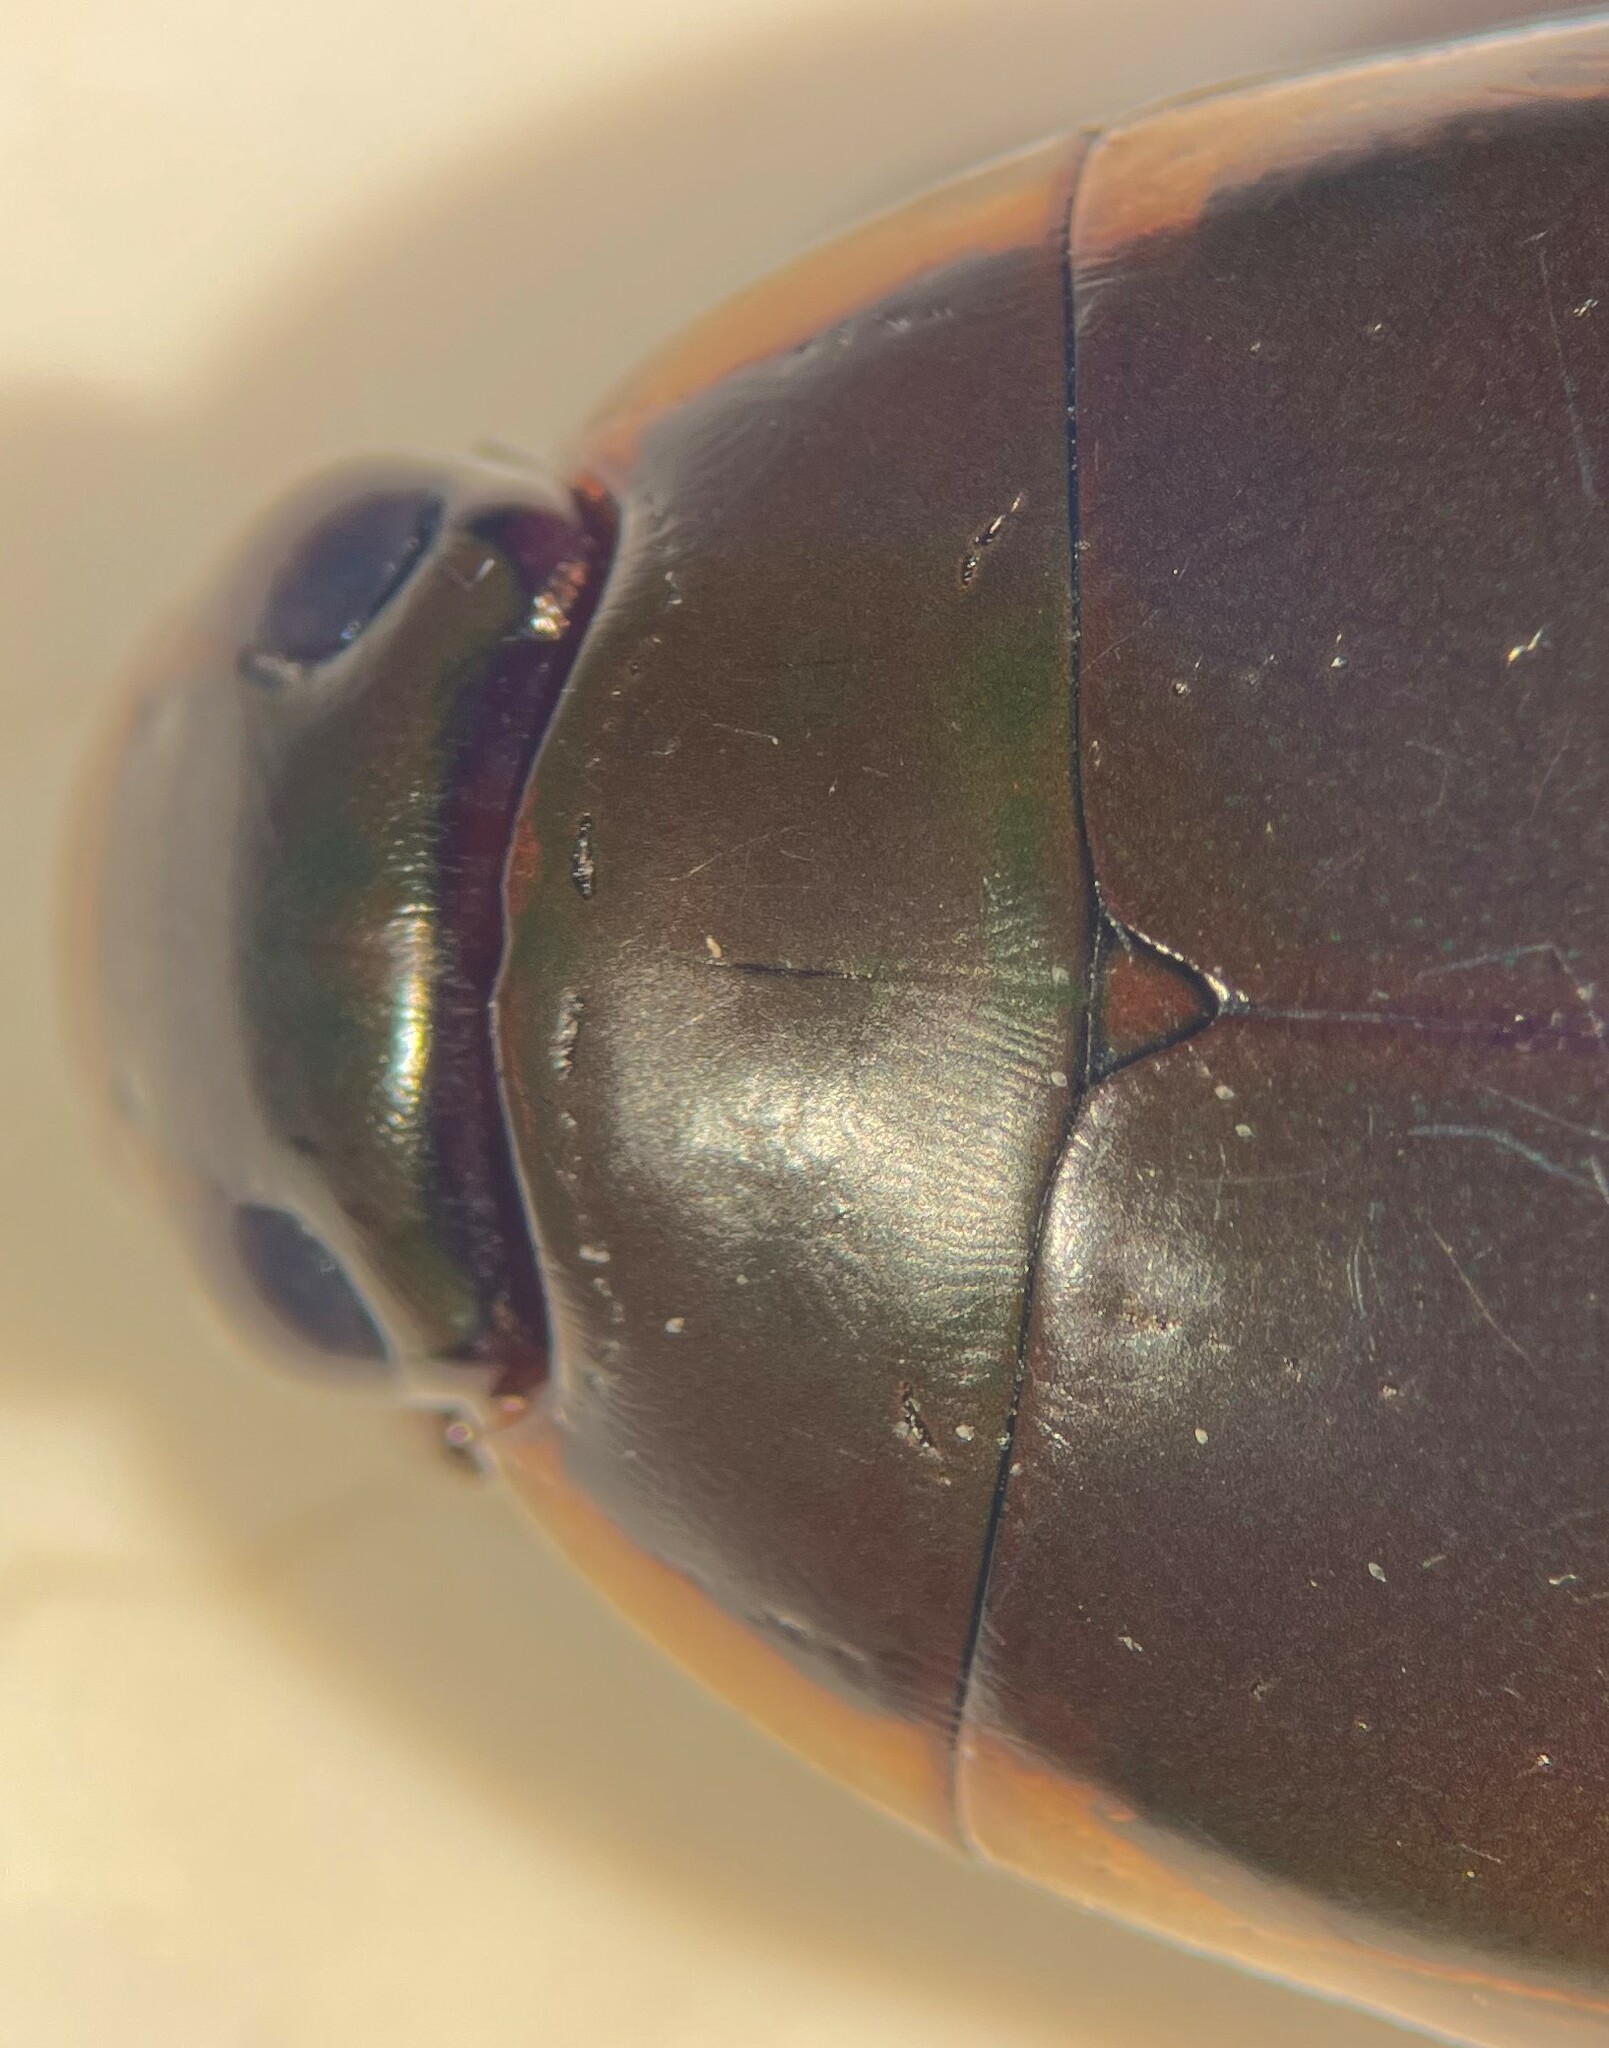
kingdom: Animalia
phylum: Arthropoda
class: Insecta
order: Coleoptera
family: Dytiscidae
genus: Cybister
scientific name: Cybister fimbriolatus
